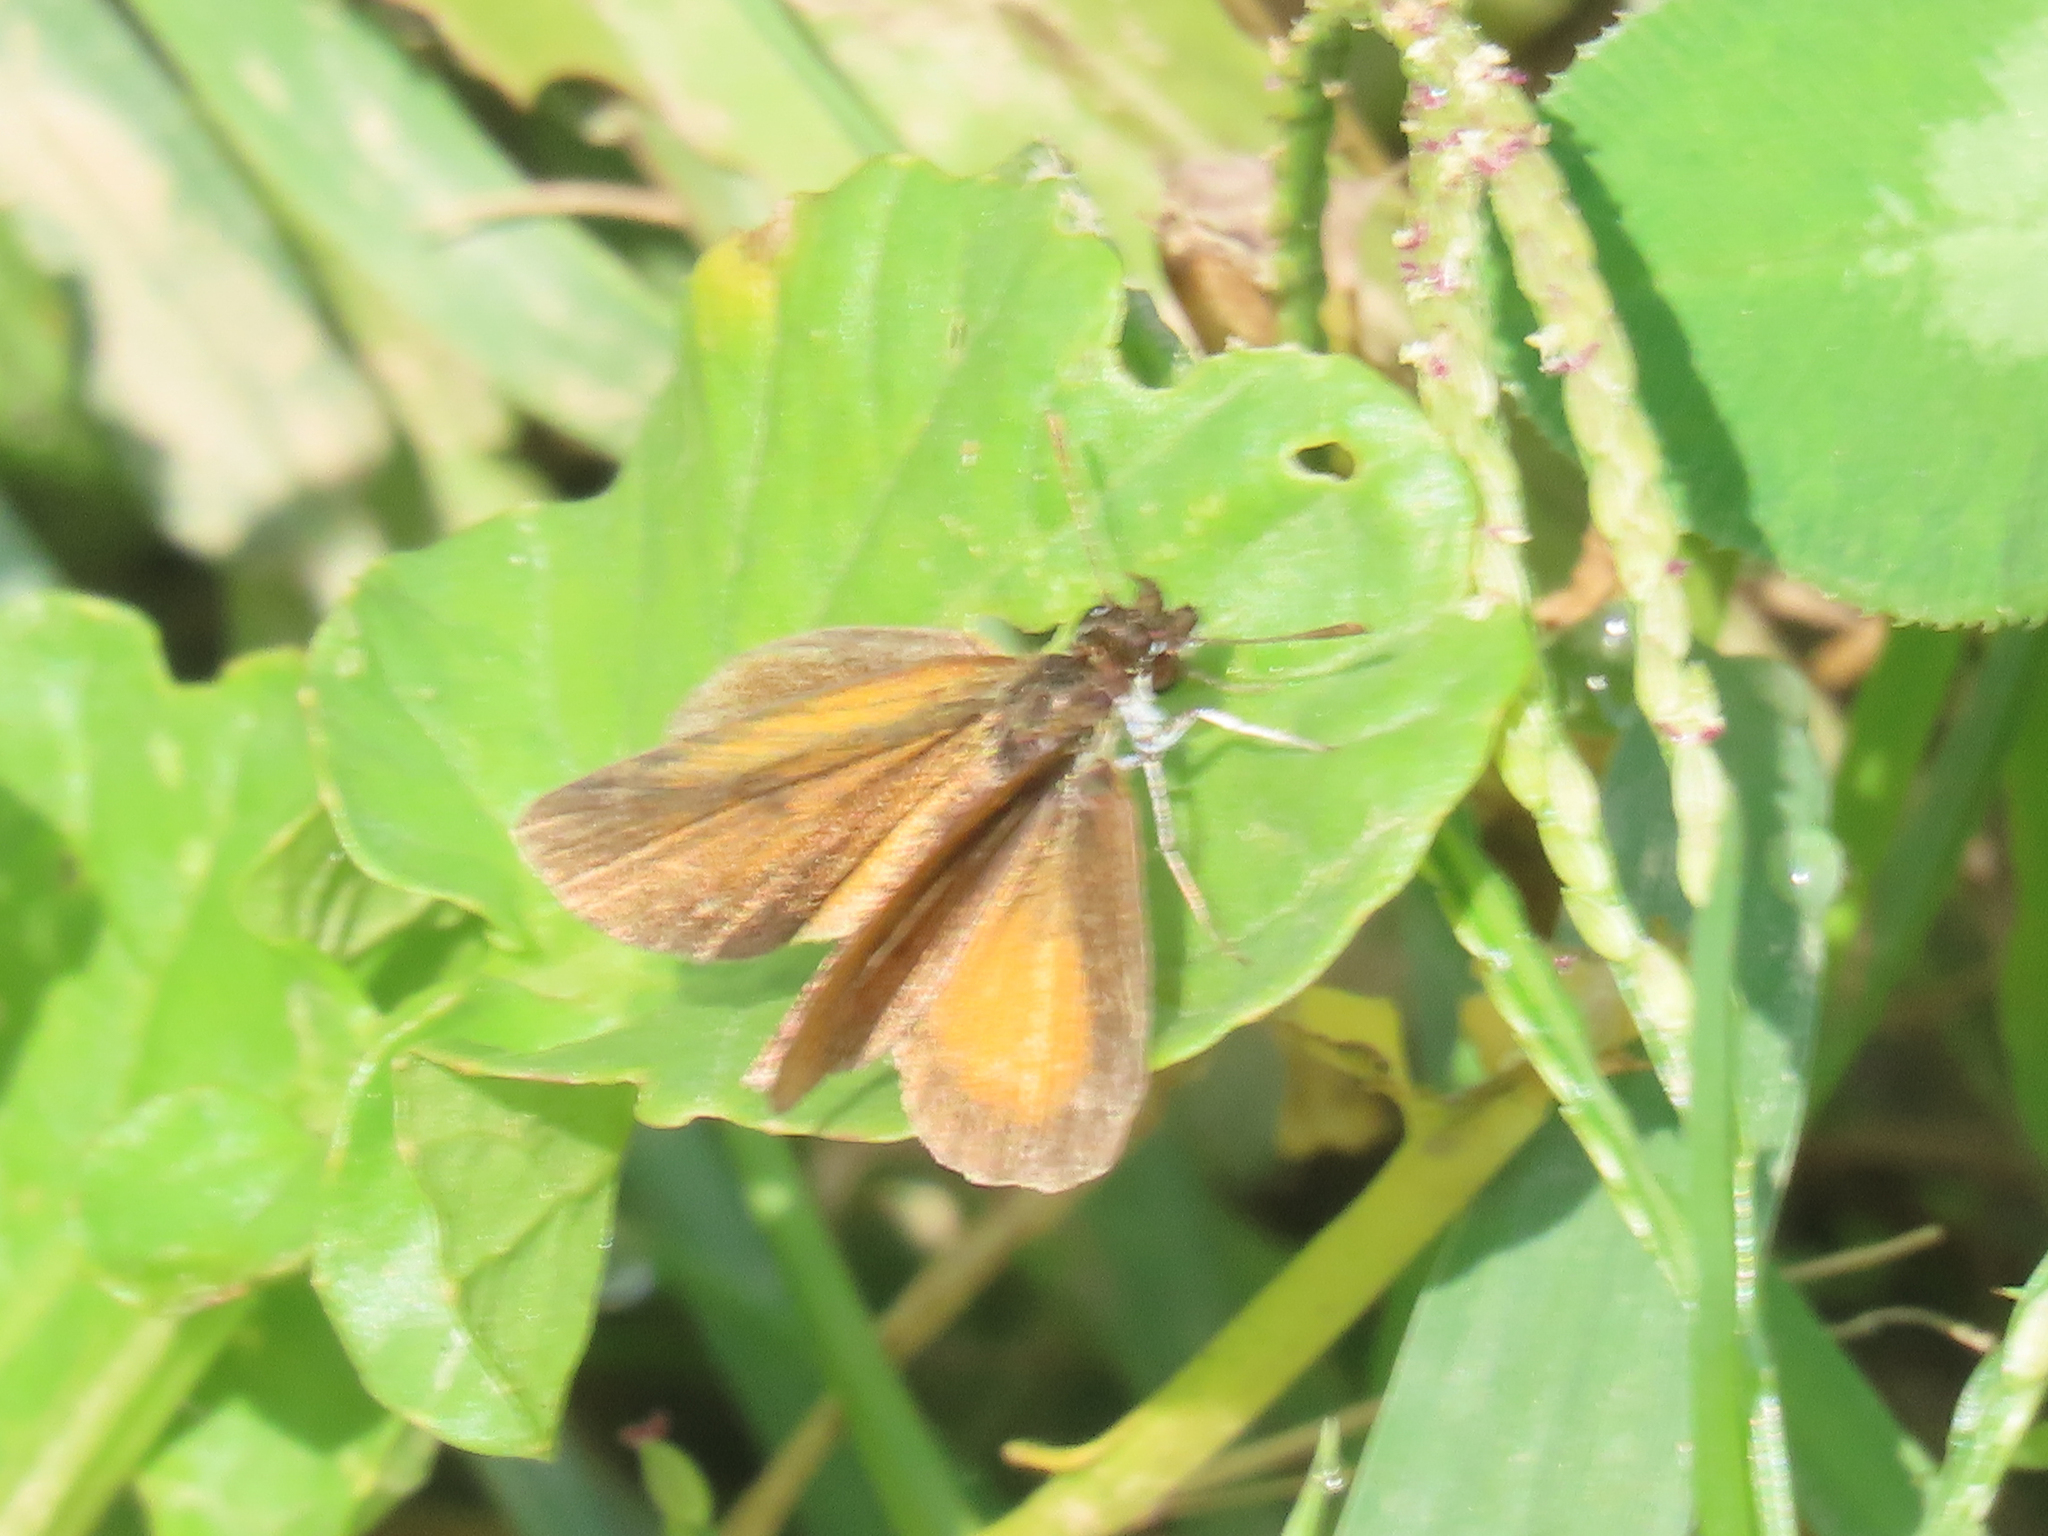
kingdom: Animalia
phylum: Arthropoda
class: Insecta
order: Lepidoptera
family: Hesperiidae
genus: Ancyloxypha
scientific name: Ancyloxypha numitor
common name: Least skipper
